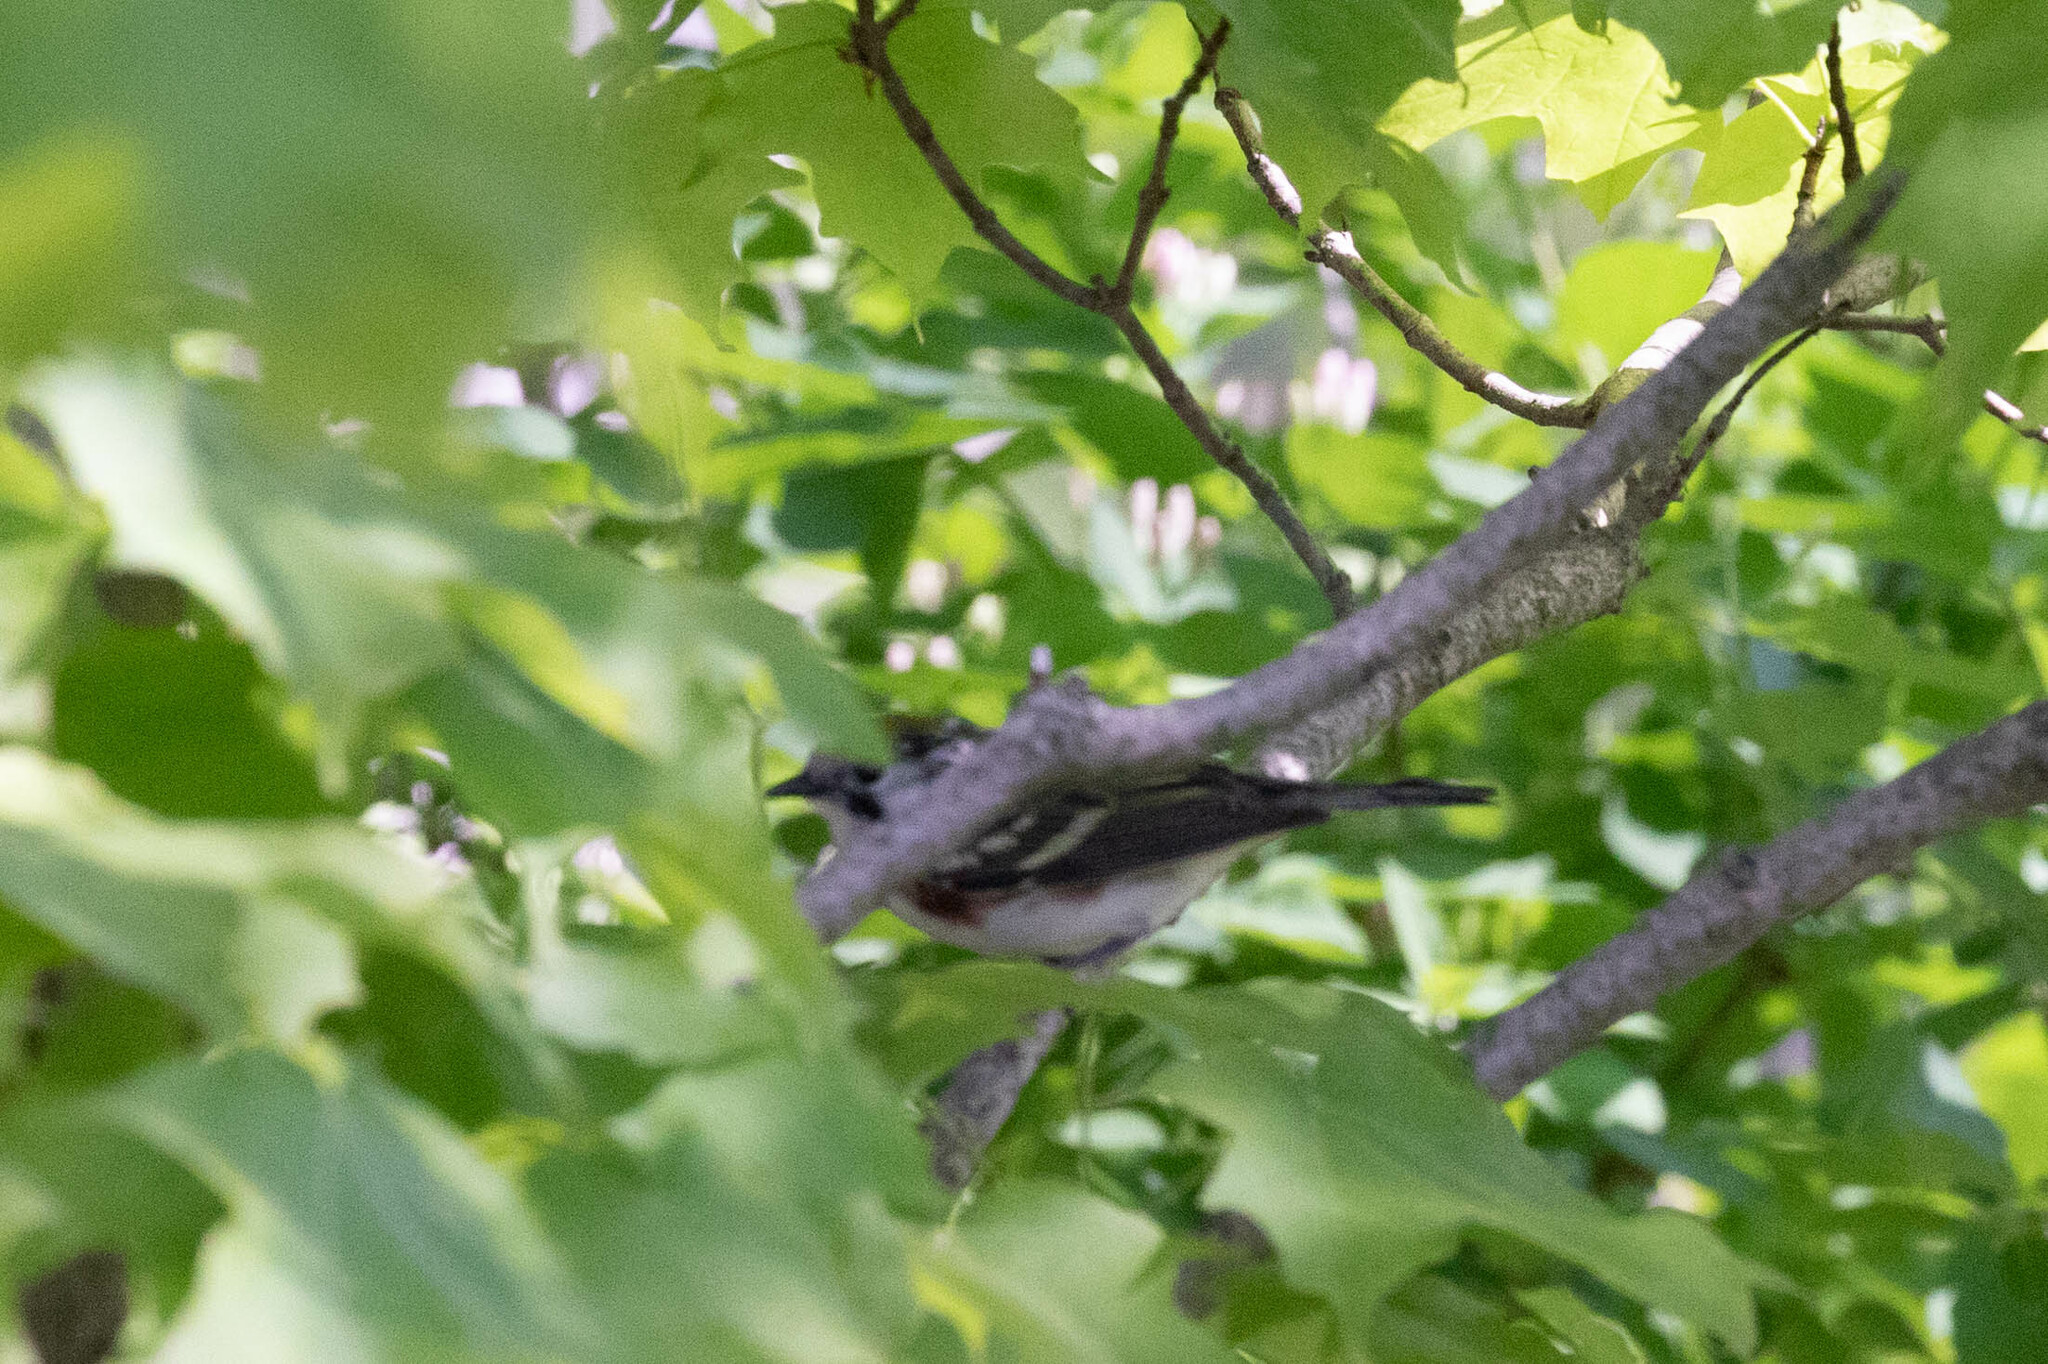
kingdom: Animalia
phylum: Chordata
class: Aves
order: Passeriformes
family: Parulidae
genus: Setophaga
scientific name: Setophaga pensylvanica
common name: Chestnut-sided warbler
